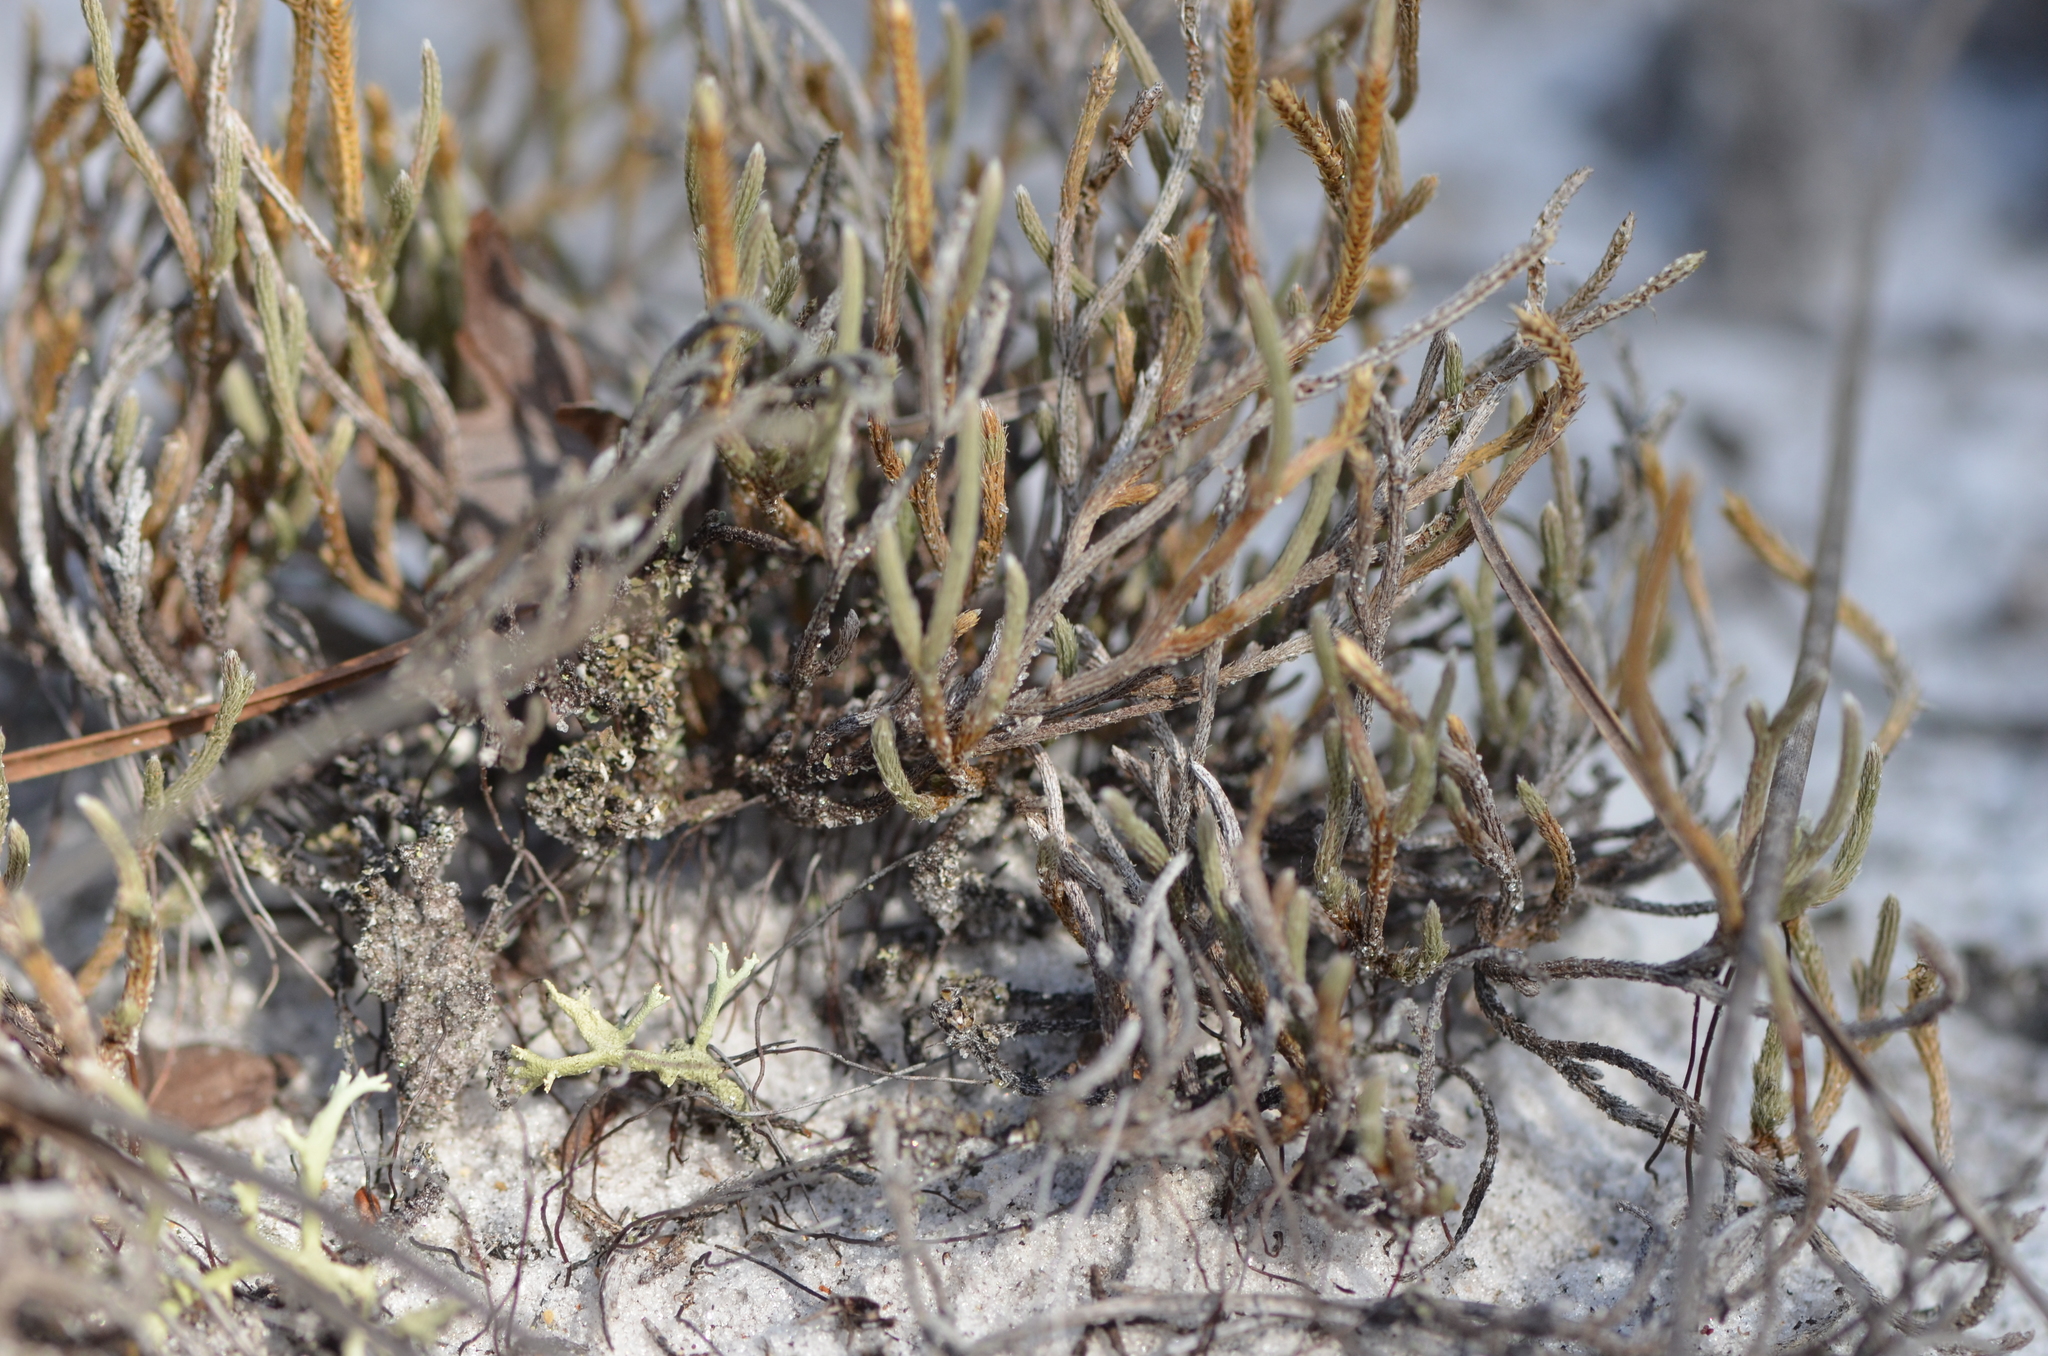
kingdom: Plantae
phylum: Tracheophyta
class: Lycopodiopsida
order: Selaginellales
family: Selaginellaceae
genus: Selaginella
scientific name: Selaginella arenicola
